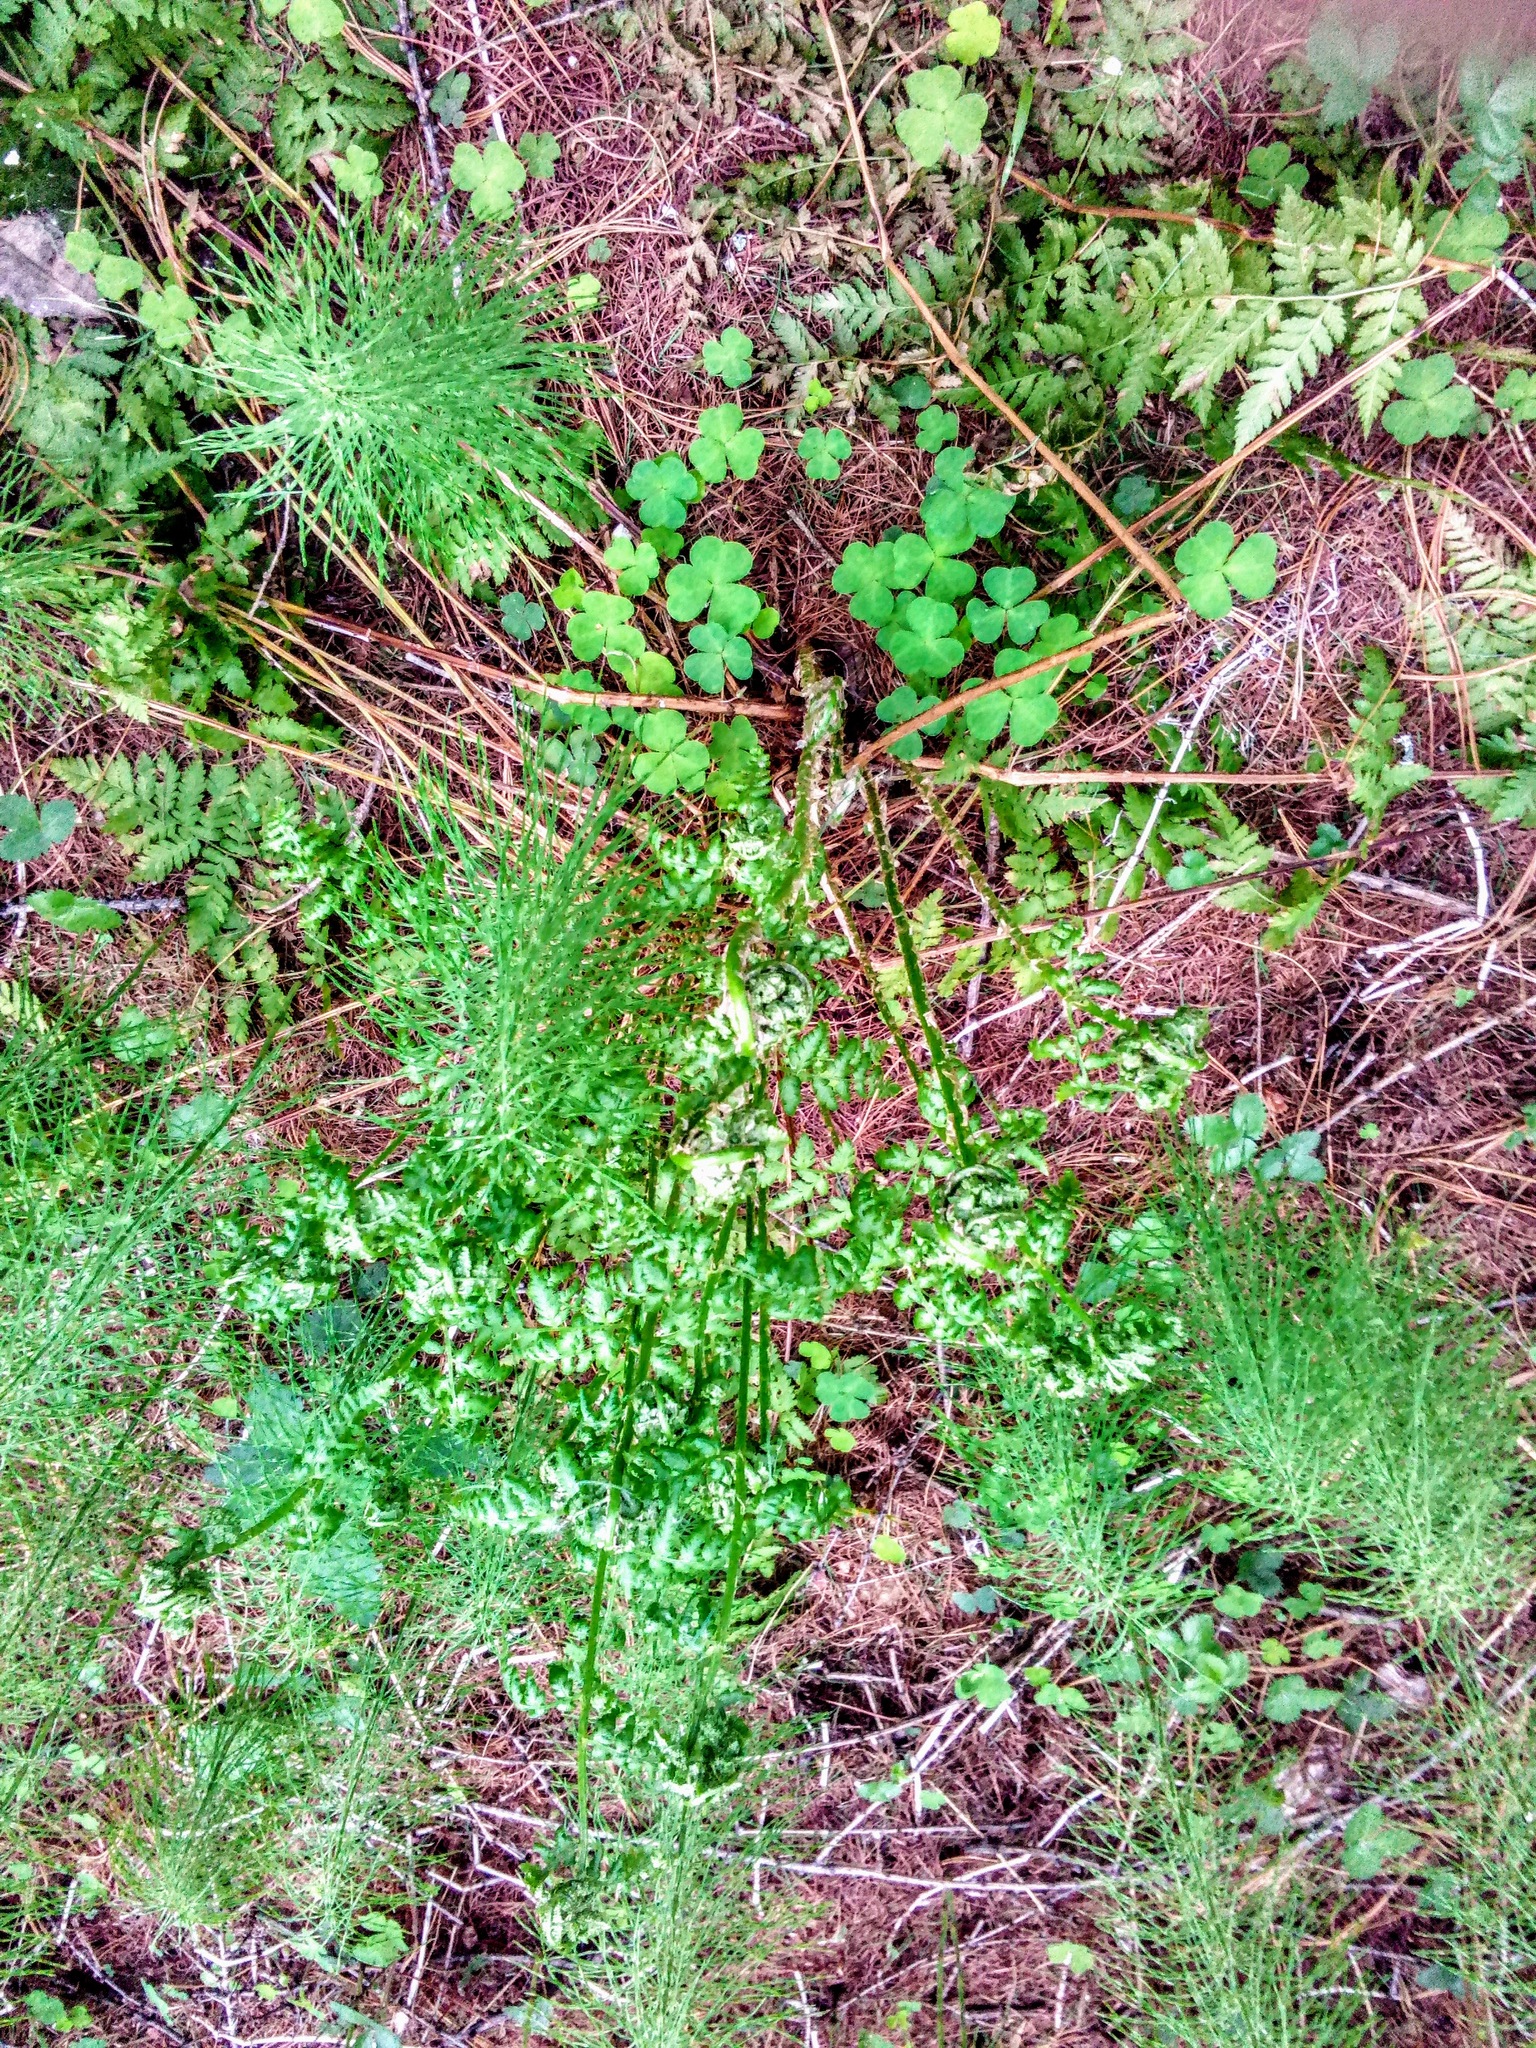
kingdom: Plantae
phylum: Tracheophyta
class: Polypodiopsida
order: Equisetales
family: Equisetaceae
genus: Equisetum
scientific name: Equisetum pratense
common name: Meadow horsetail
